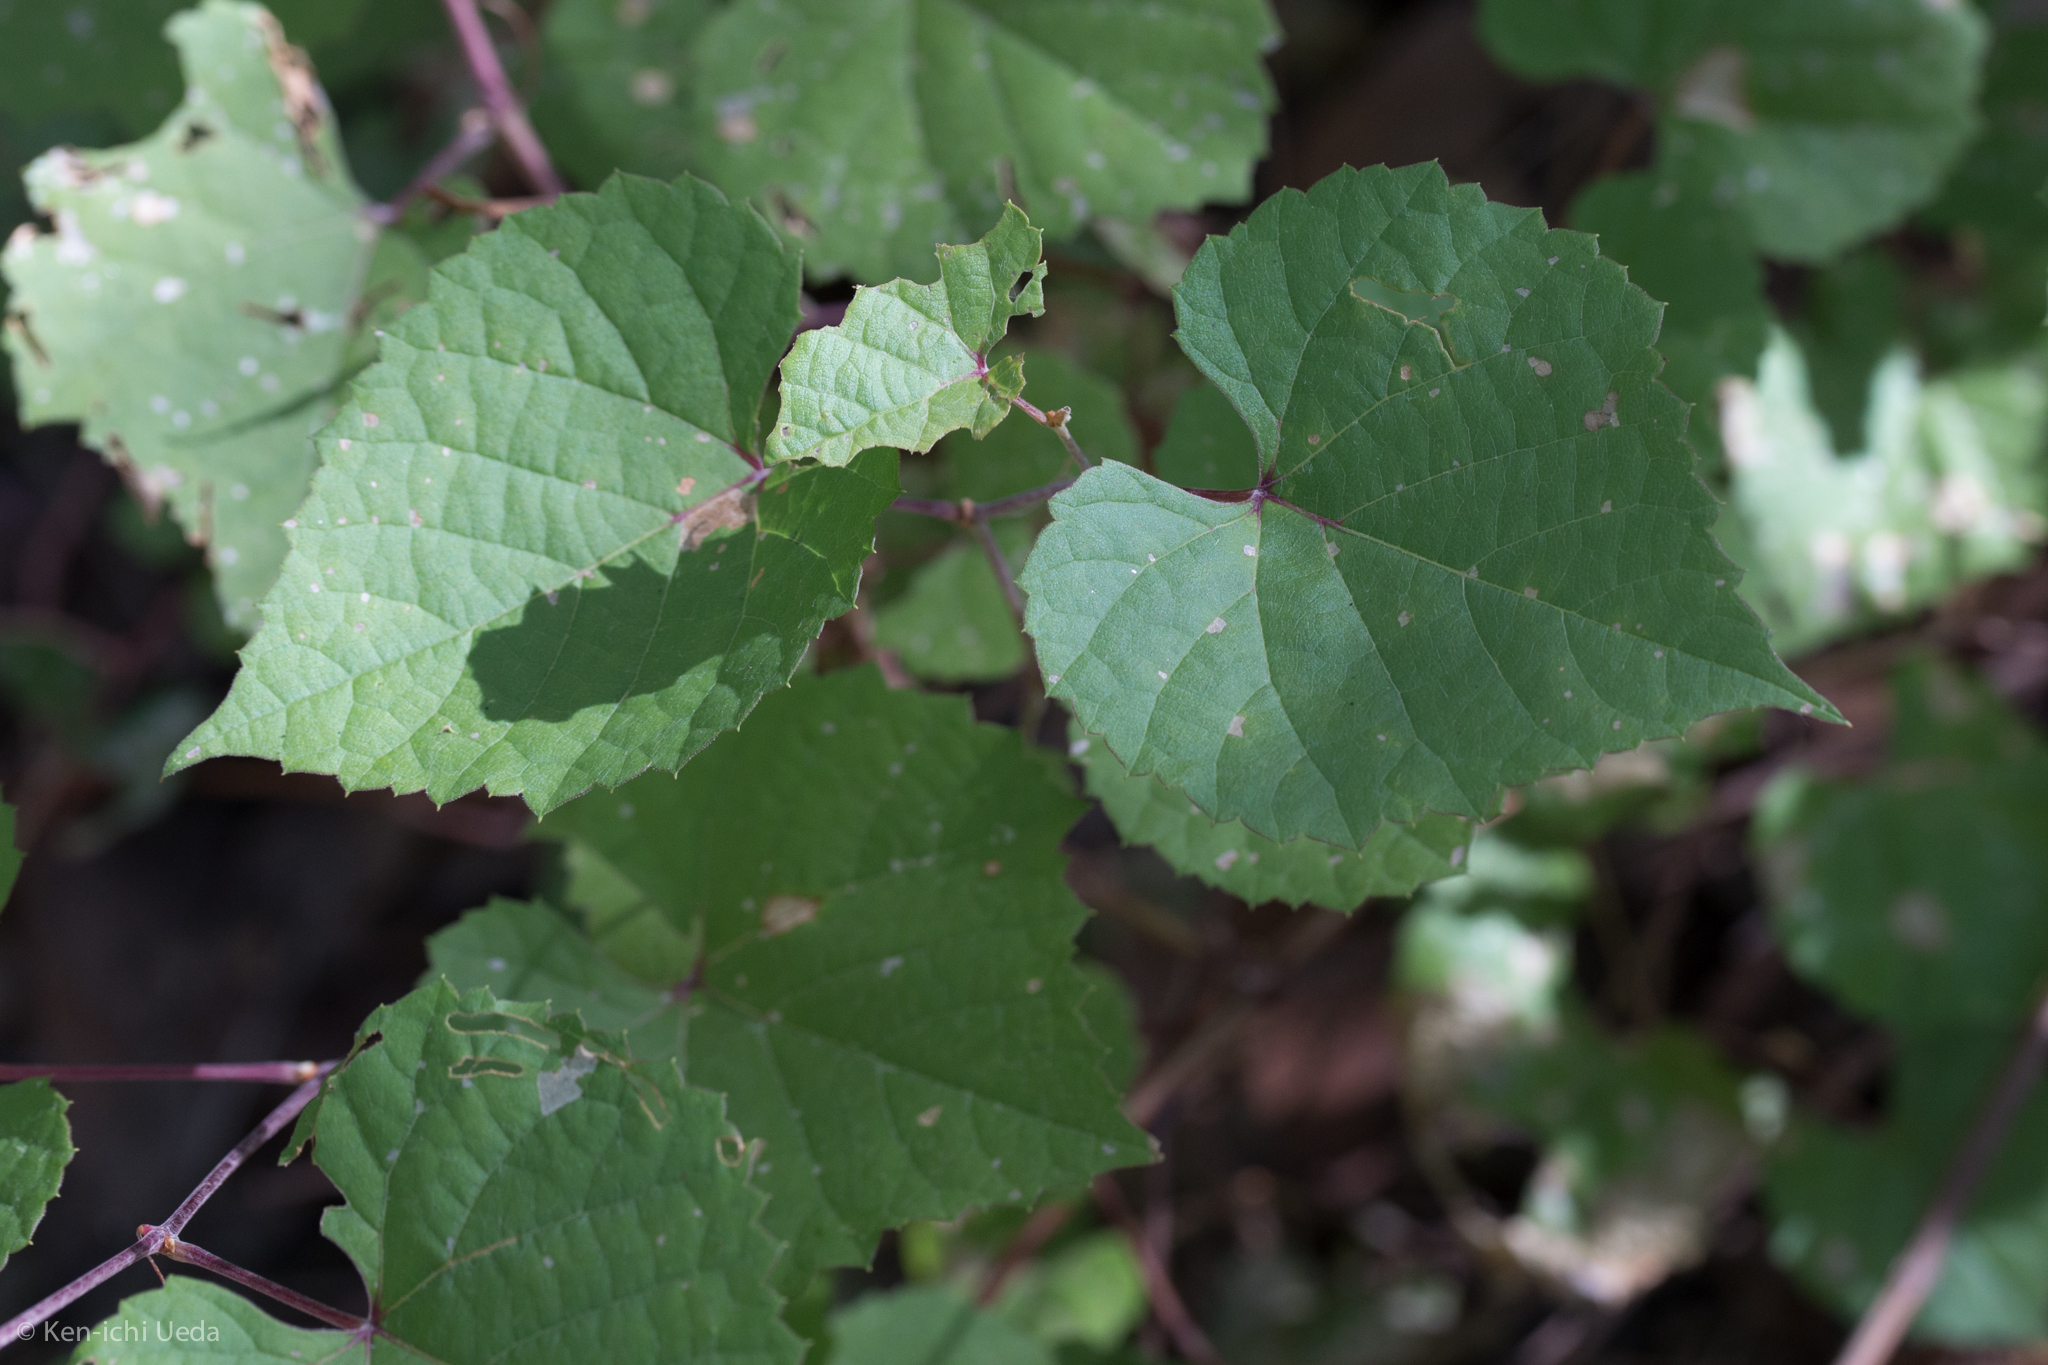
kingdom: Plantae
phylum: Tracheophyta
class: Magnoliopsida
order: Vitales
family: Vitaceae
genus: Vitis
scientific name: Vitis arizonica
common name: Canyon grape
